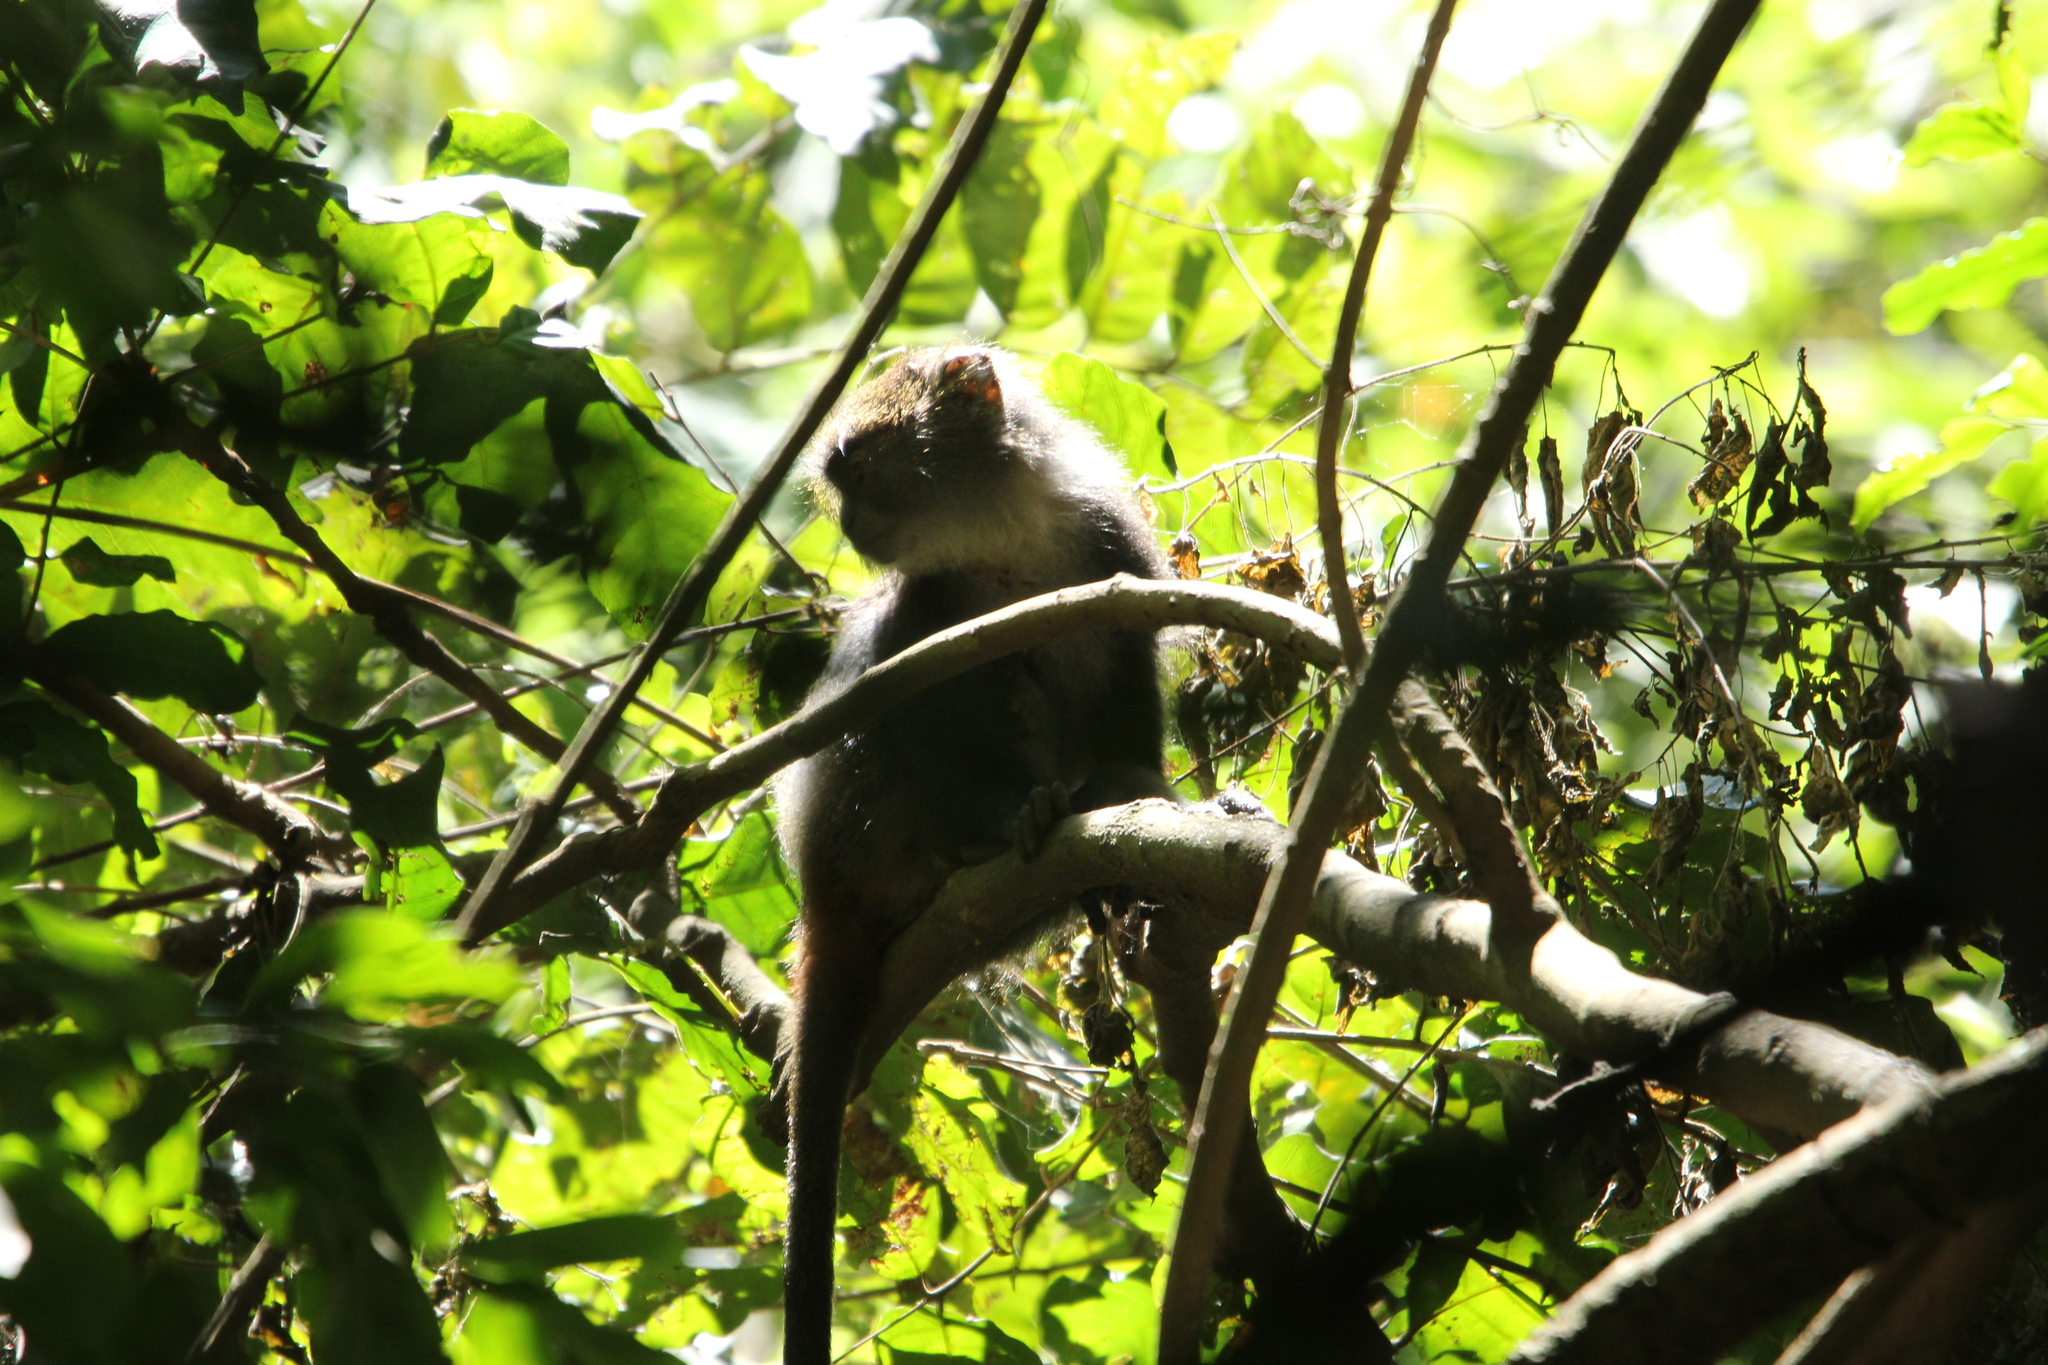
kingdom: Animalia
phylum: Chordata
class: Mammalia
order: Primates
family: Cercopithecidae
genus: Cercopithecus
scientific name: Cercopithecus mitis
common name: Blue monkey
